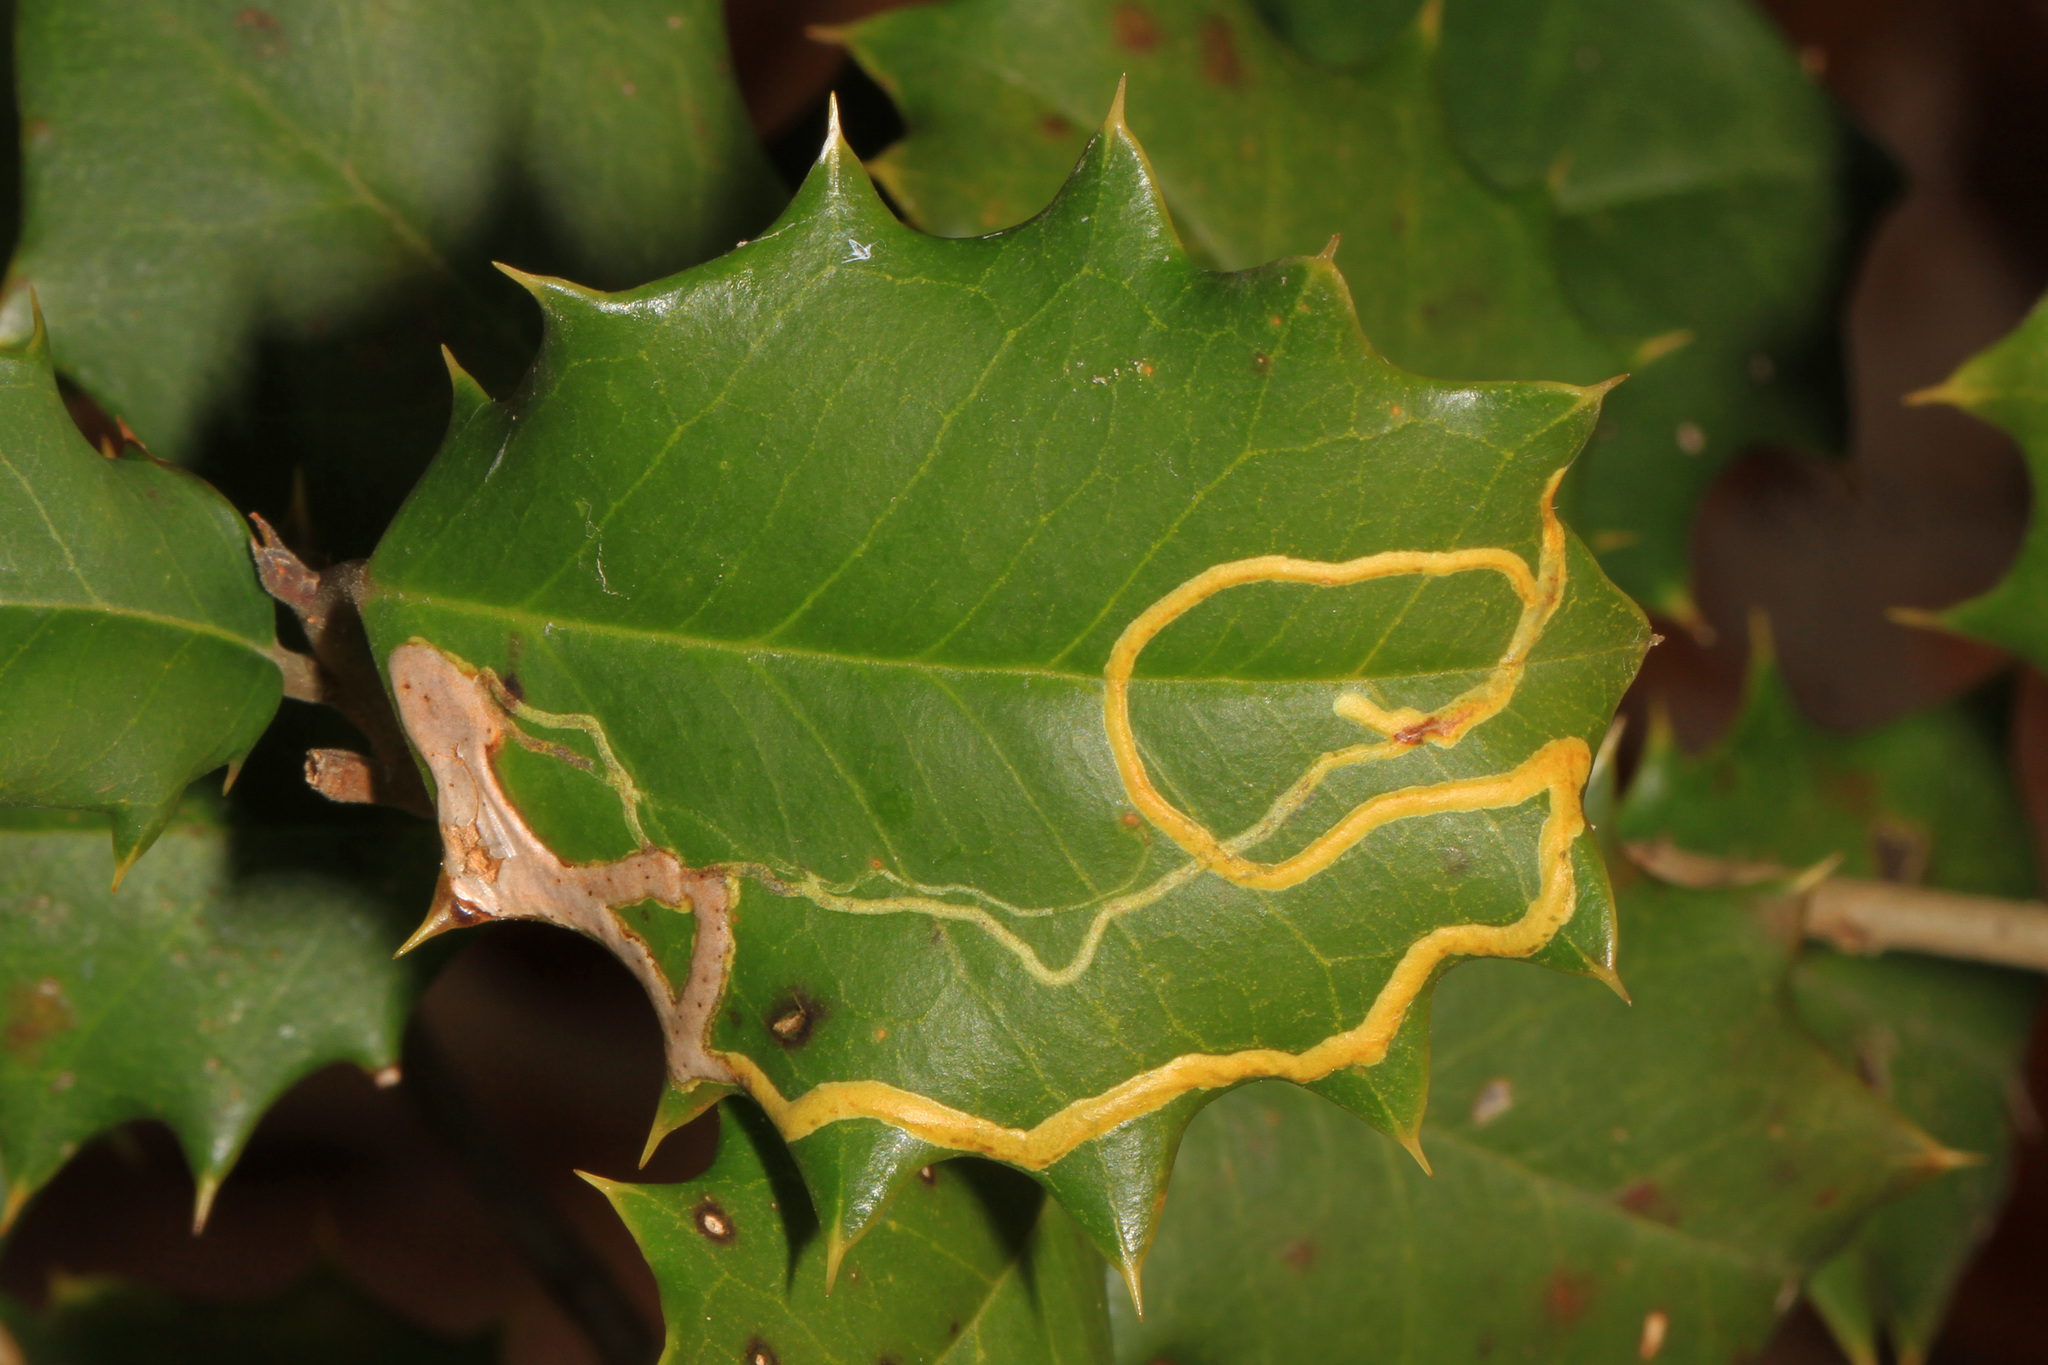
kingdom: Animalia
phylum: Arthropoda
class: Insecta
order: Diptera
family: Agromyzidae
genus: Phytomyza
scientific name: Phytomyza opacae
